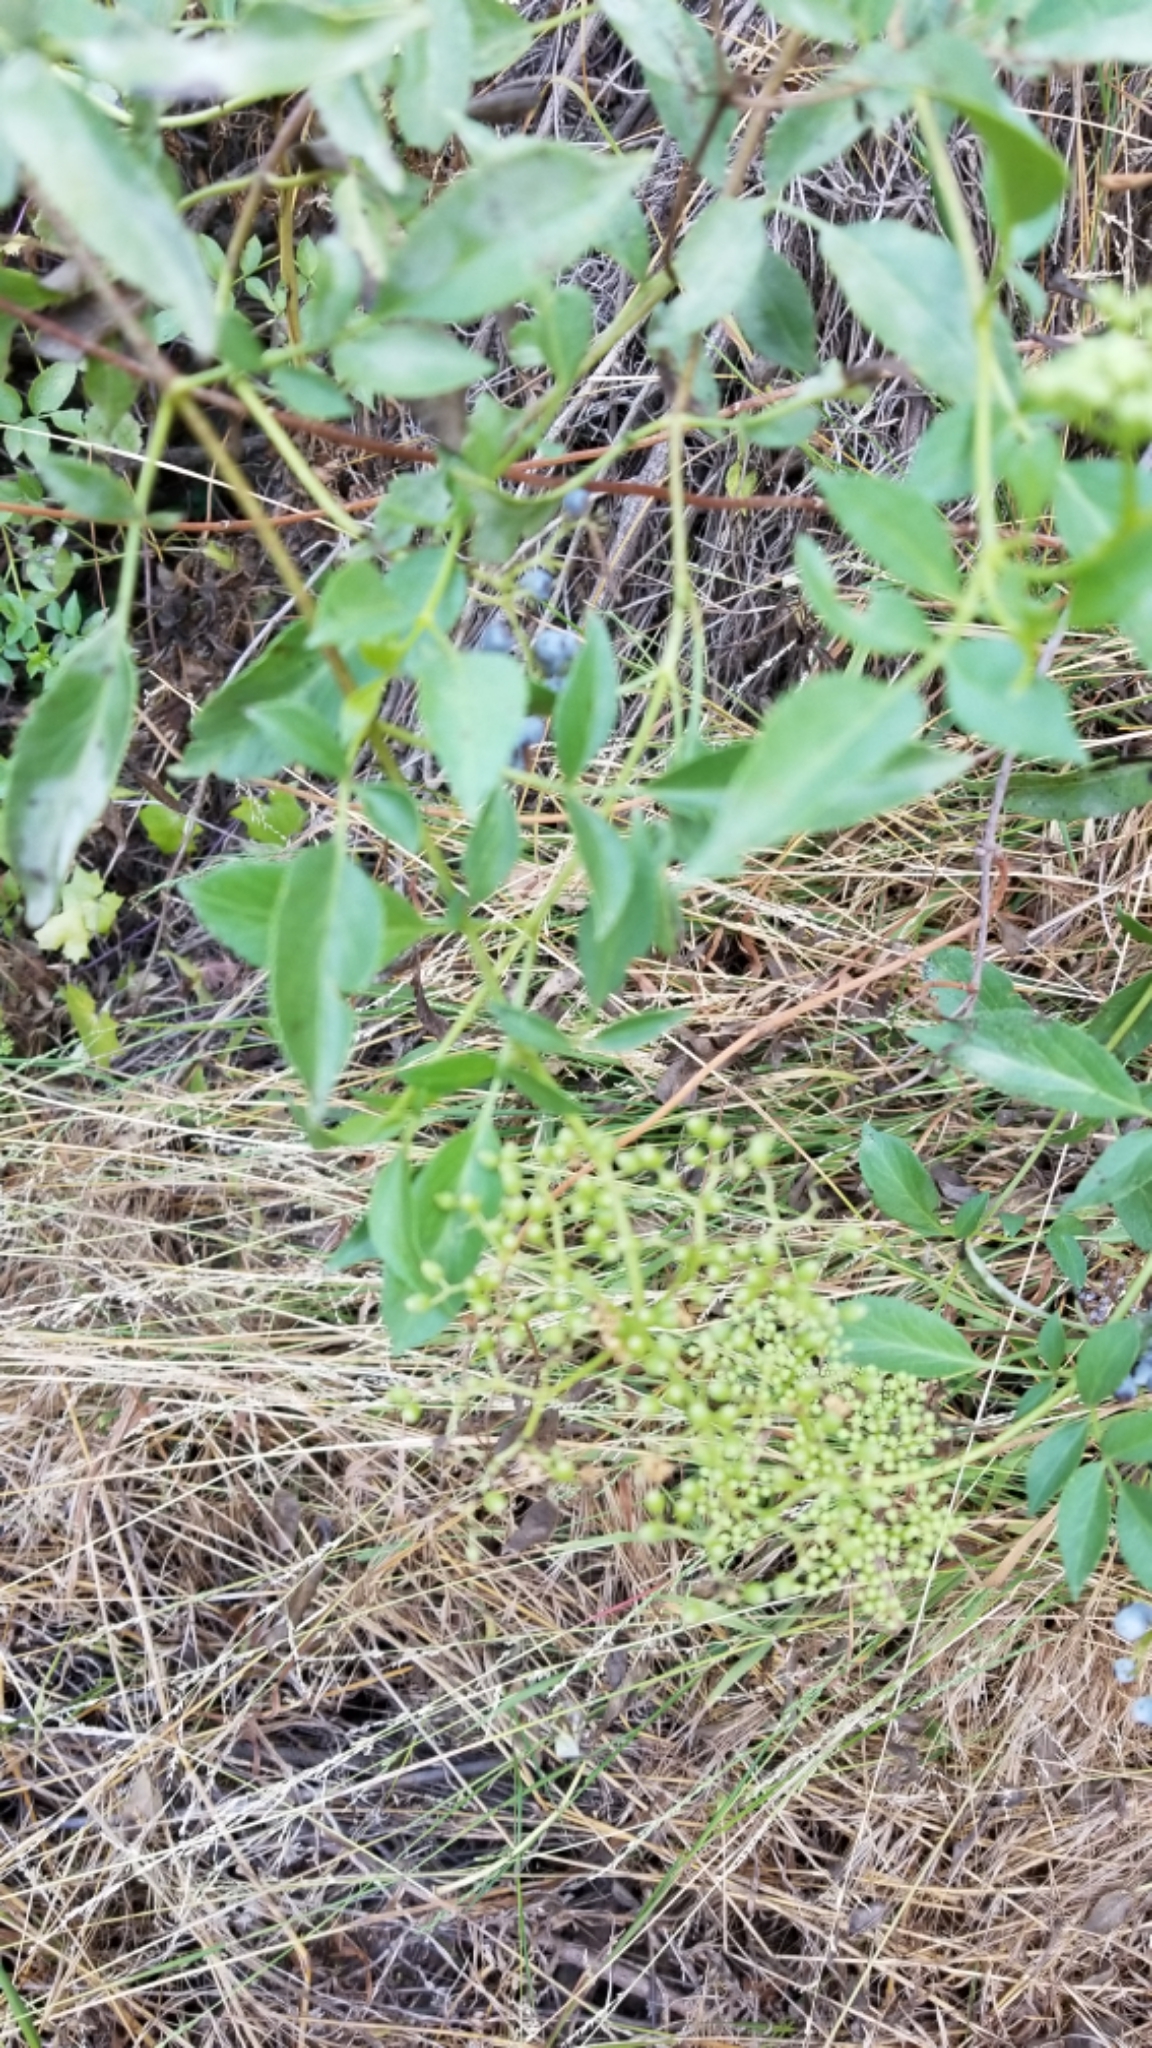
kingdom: Plantae
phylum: Tracheophyta
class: Magnoliopsida
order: Dipsacales
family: Viburnaceae
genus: Sambucus
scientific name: Sambucus cerulea
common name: Blue elder
